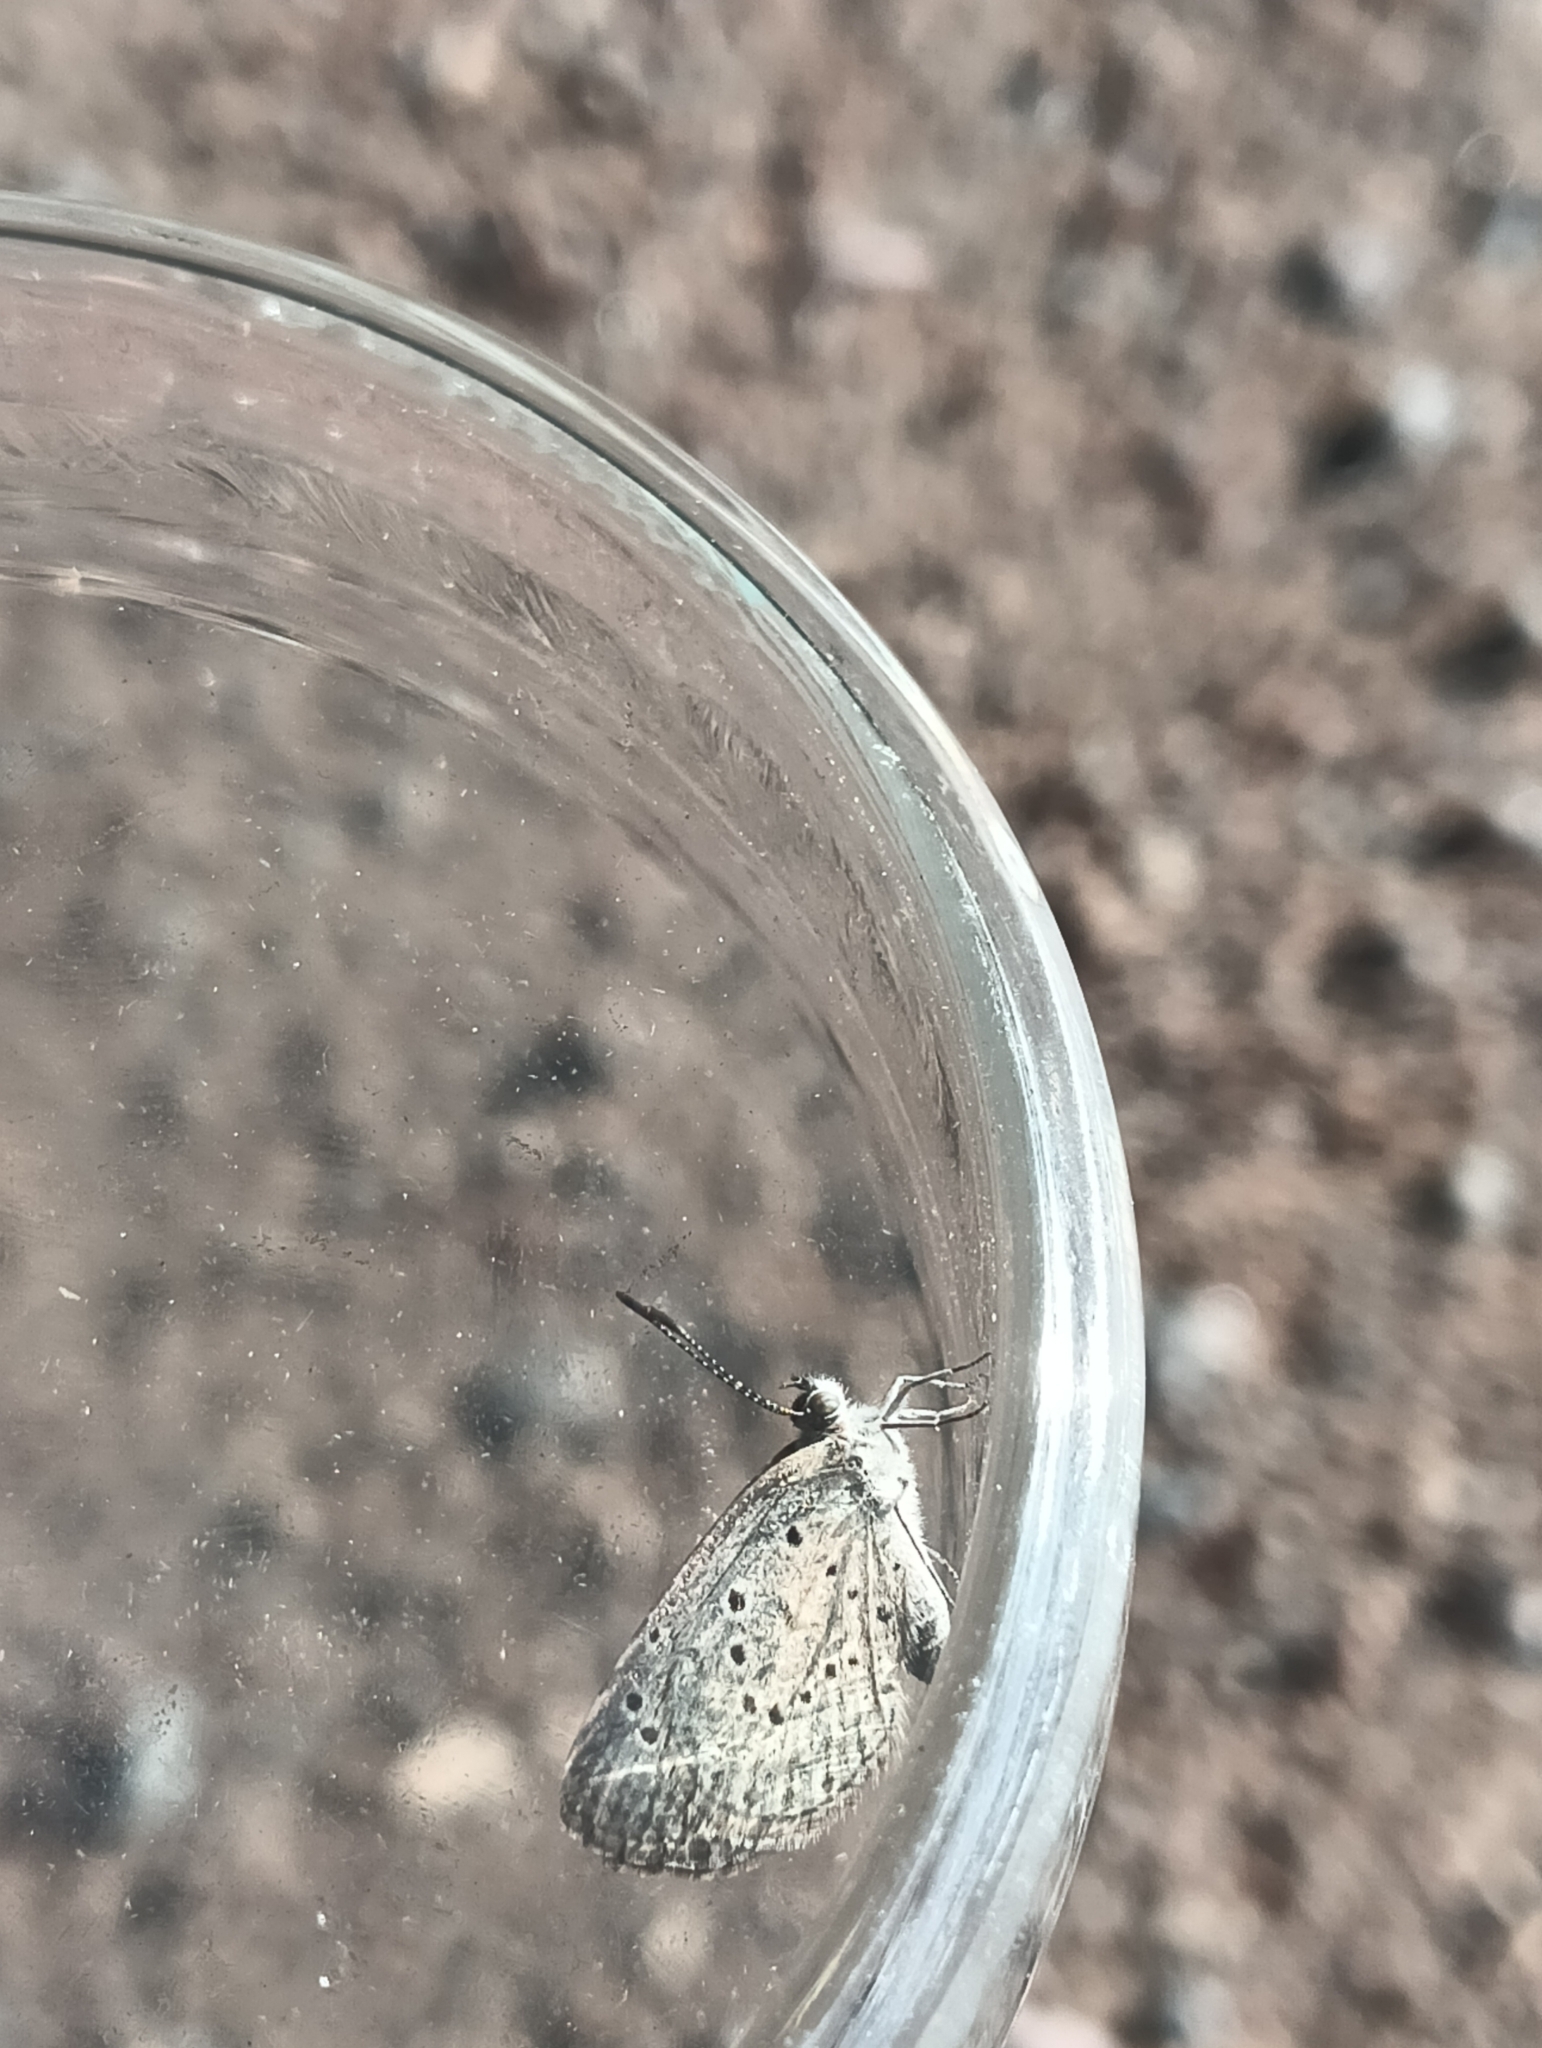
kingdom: Animalia
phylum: Arthropoda
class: Insecta
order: Lepidoptera
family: Lycaenidae
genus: Zizeeria
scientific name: Zizeeria knysna
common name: African grass blue
